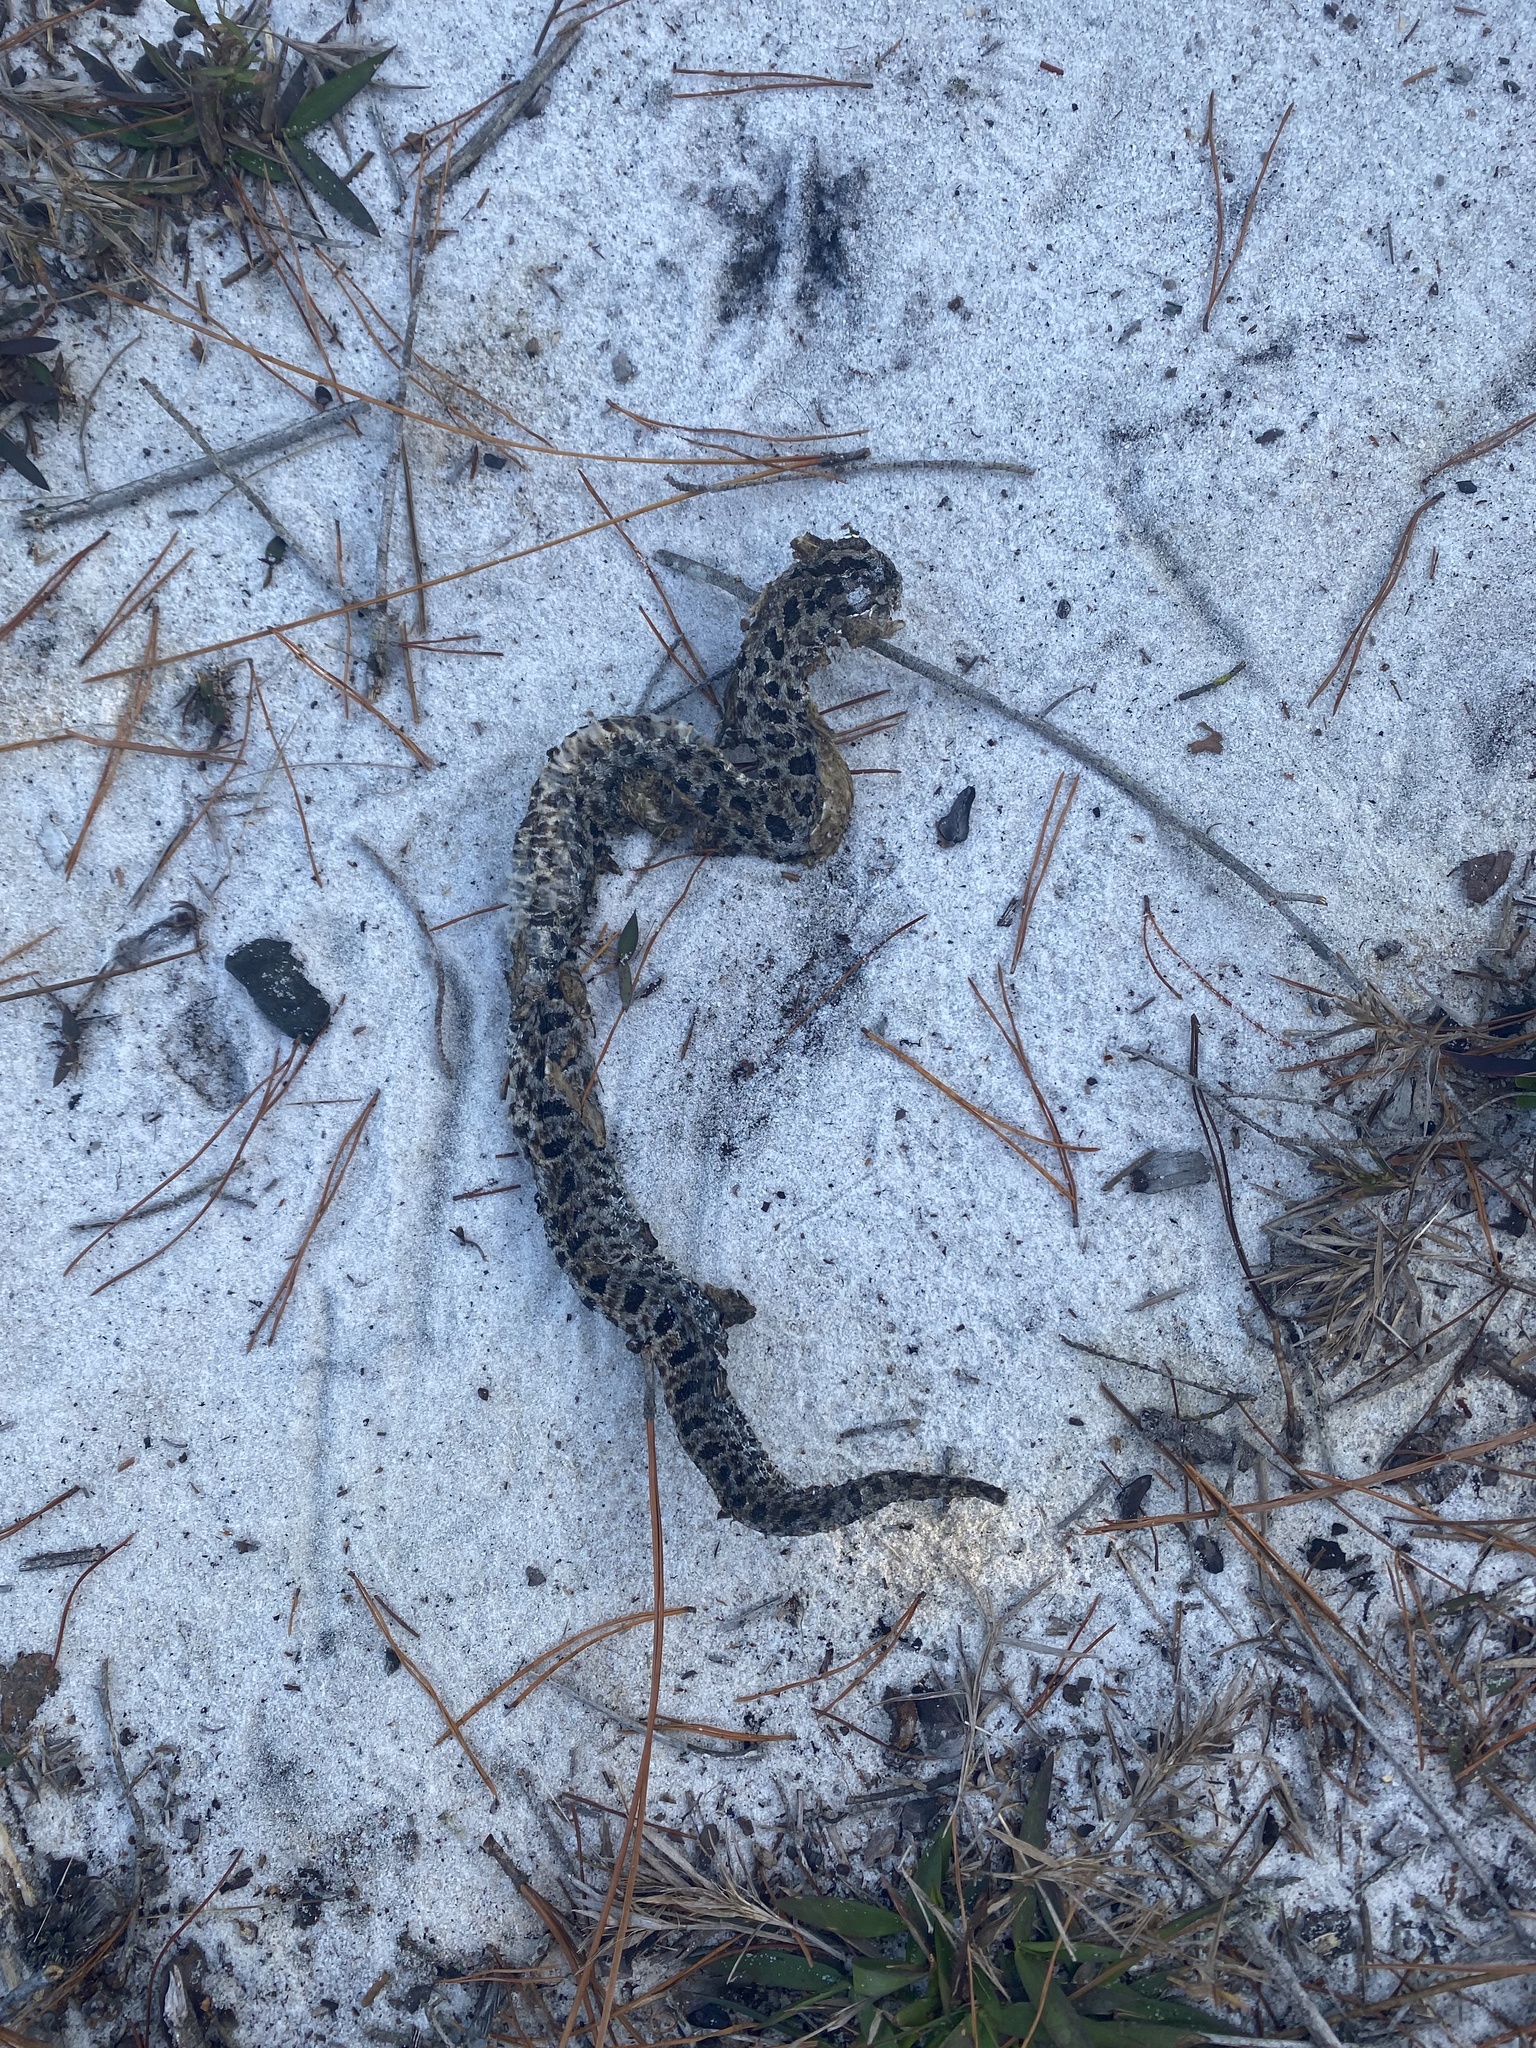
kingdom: Animalia
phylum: Chordata
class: Squamata
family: Viperidae
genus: Sistrurus
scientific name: Sistrurus miliarius
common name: Pygmy rattlesnake
